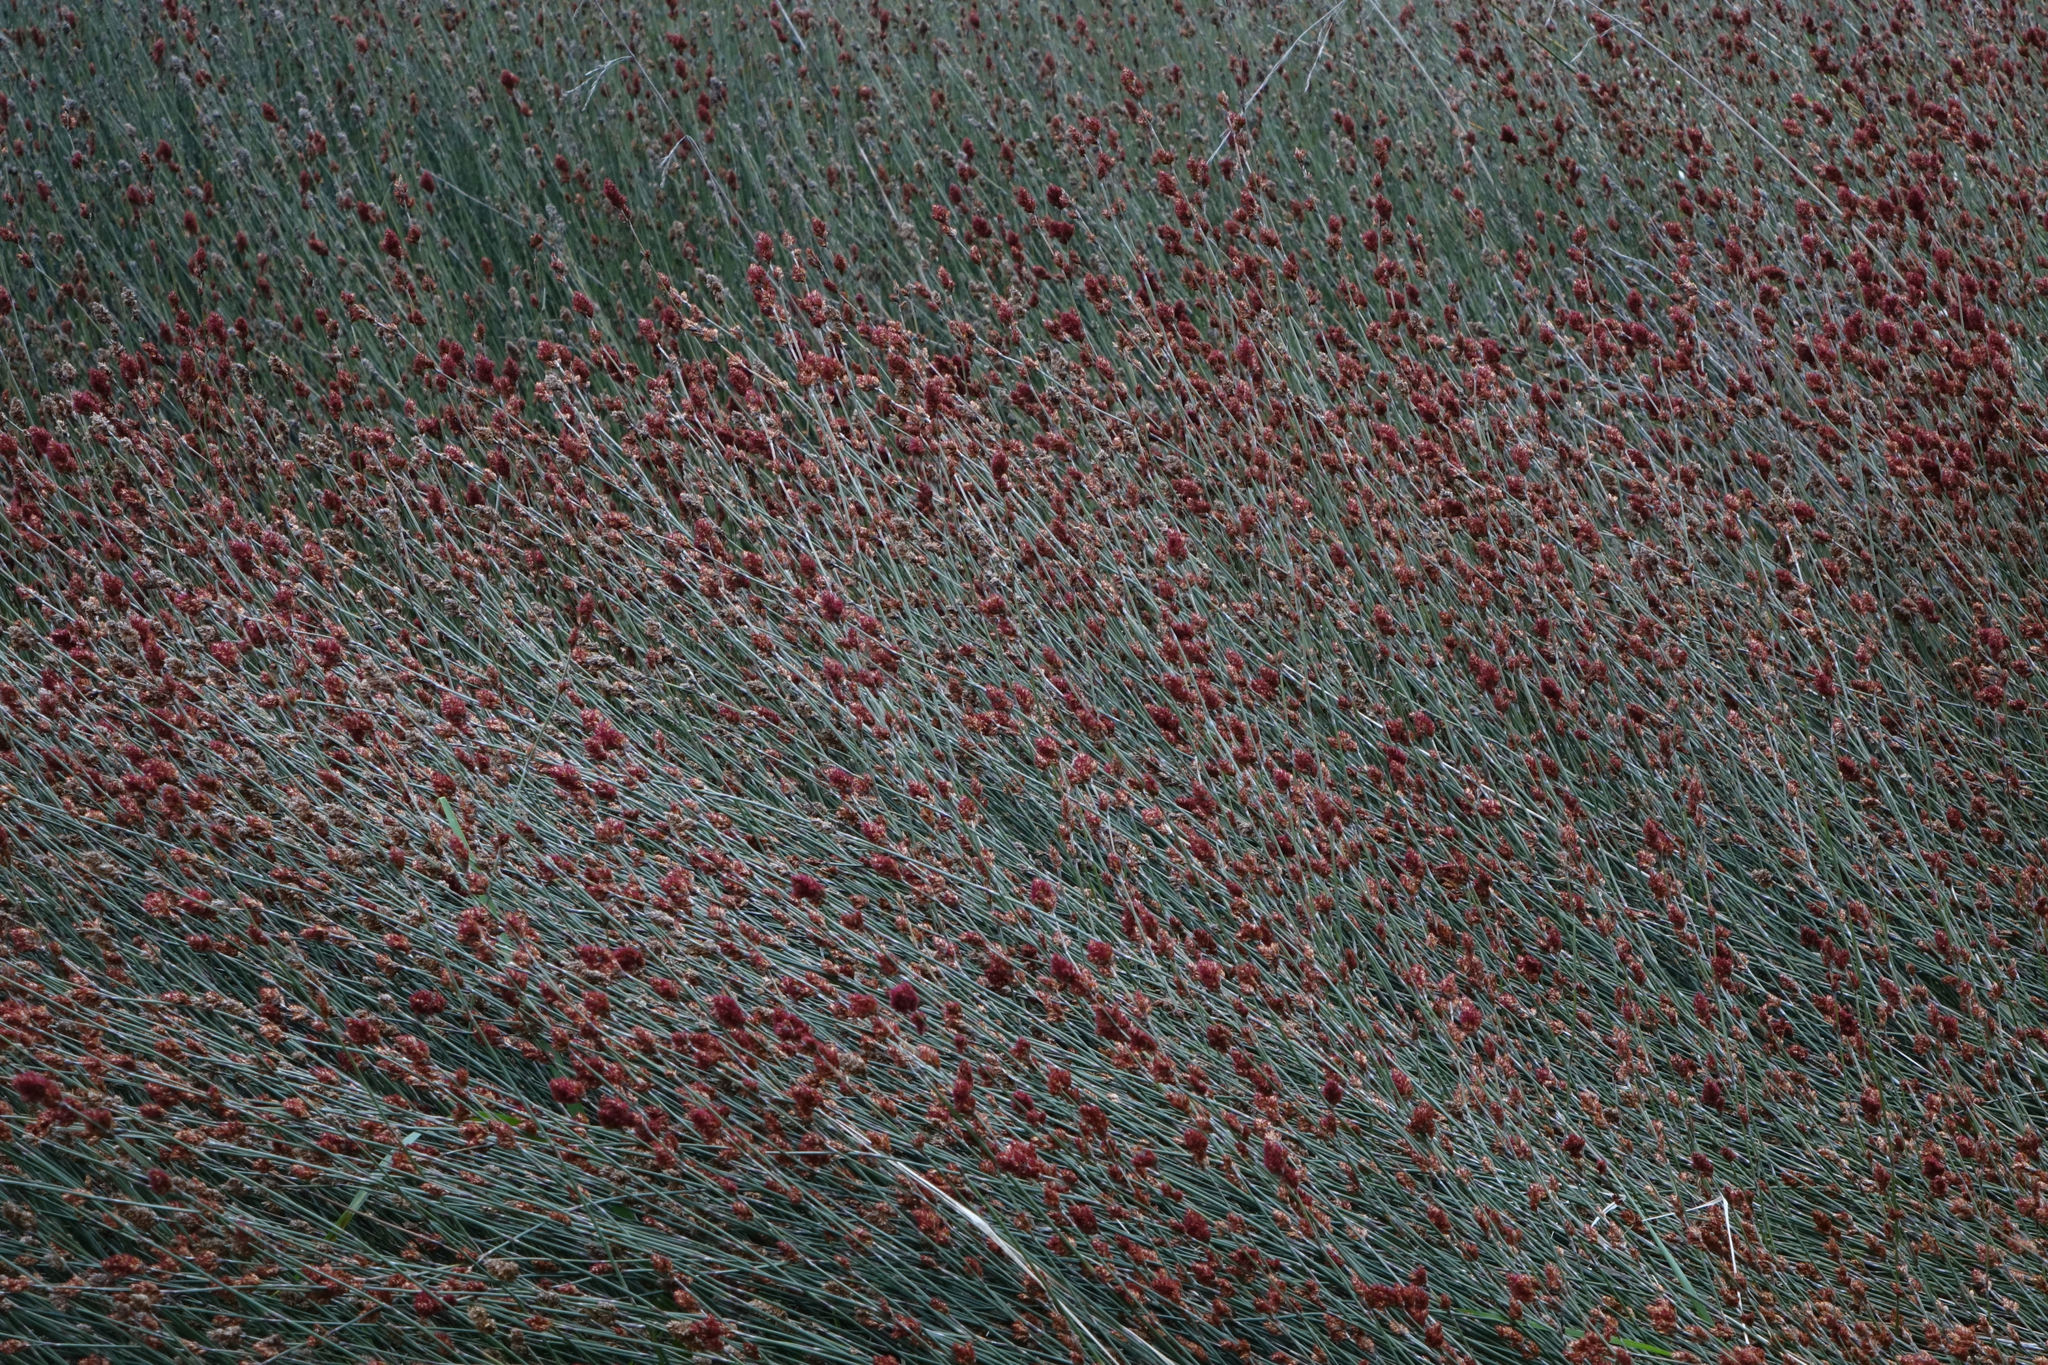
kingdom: Plantae
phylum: Tracheophyta
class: Liliopsida
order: Poales
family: Restionaceae
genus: Apodasmia
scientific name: Apodasmia similis
